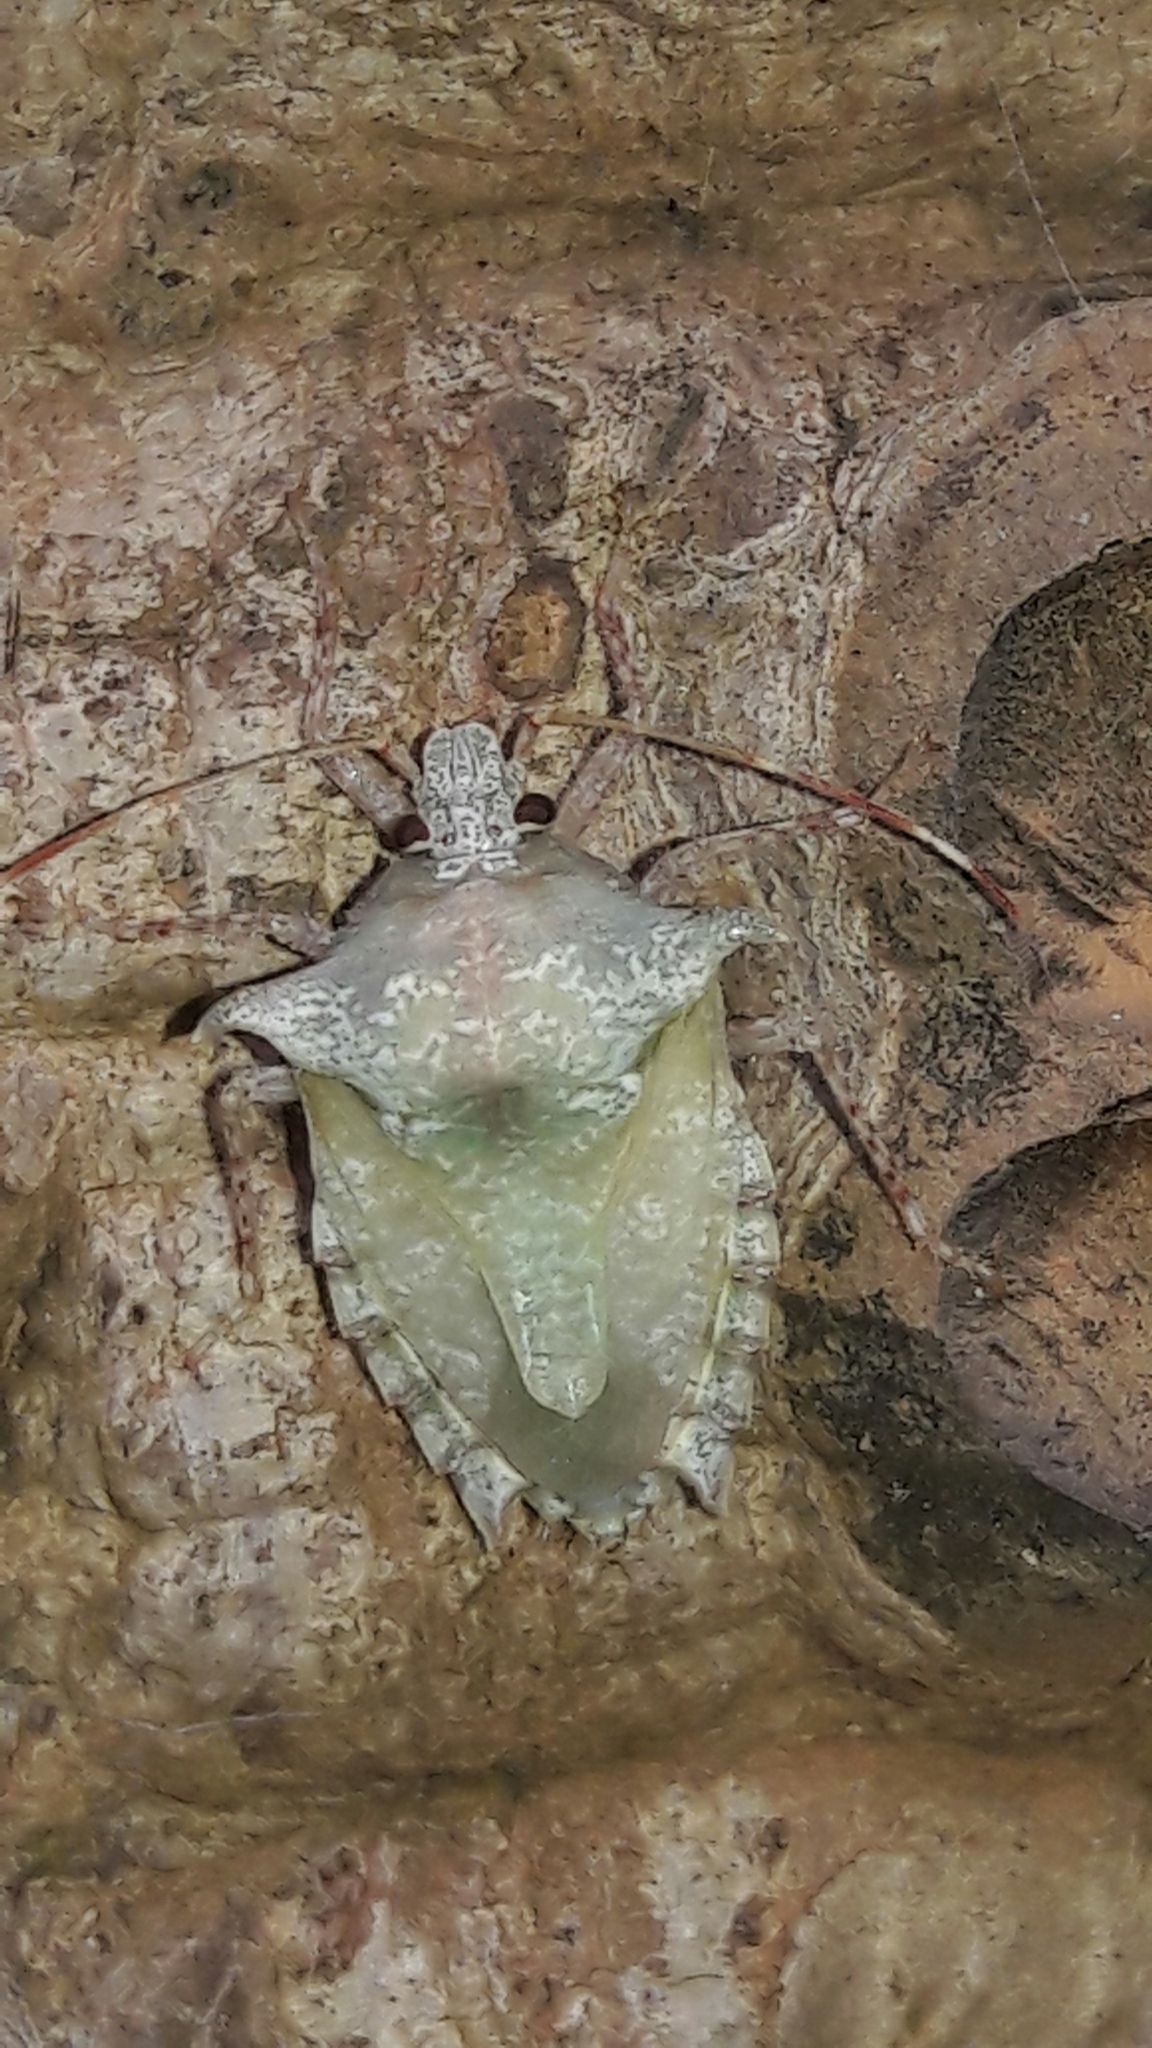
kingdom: Animalia
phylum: Arthropoda
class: Insecta
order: Hemiptera
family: Pentatomidae
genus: Pseudevoplitus
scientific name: Pseudevoplitus
